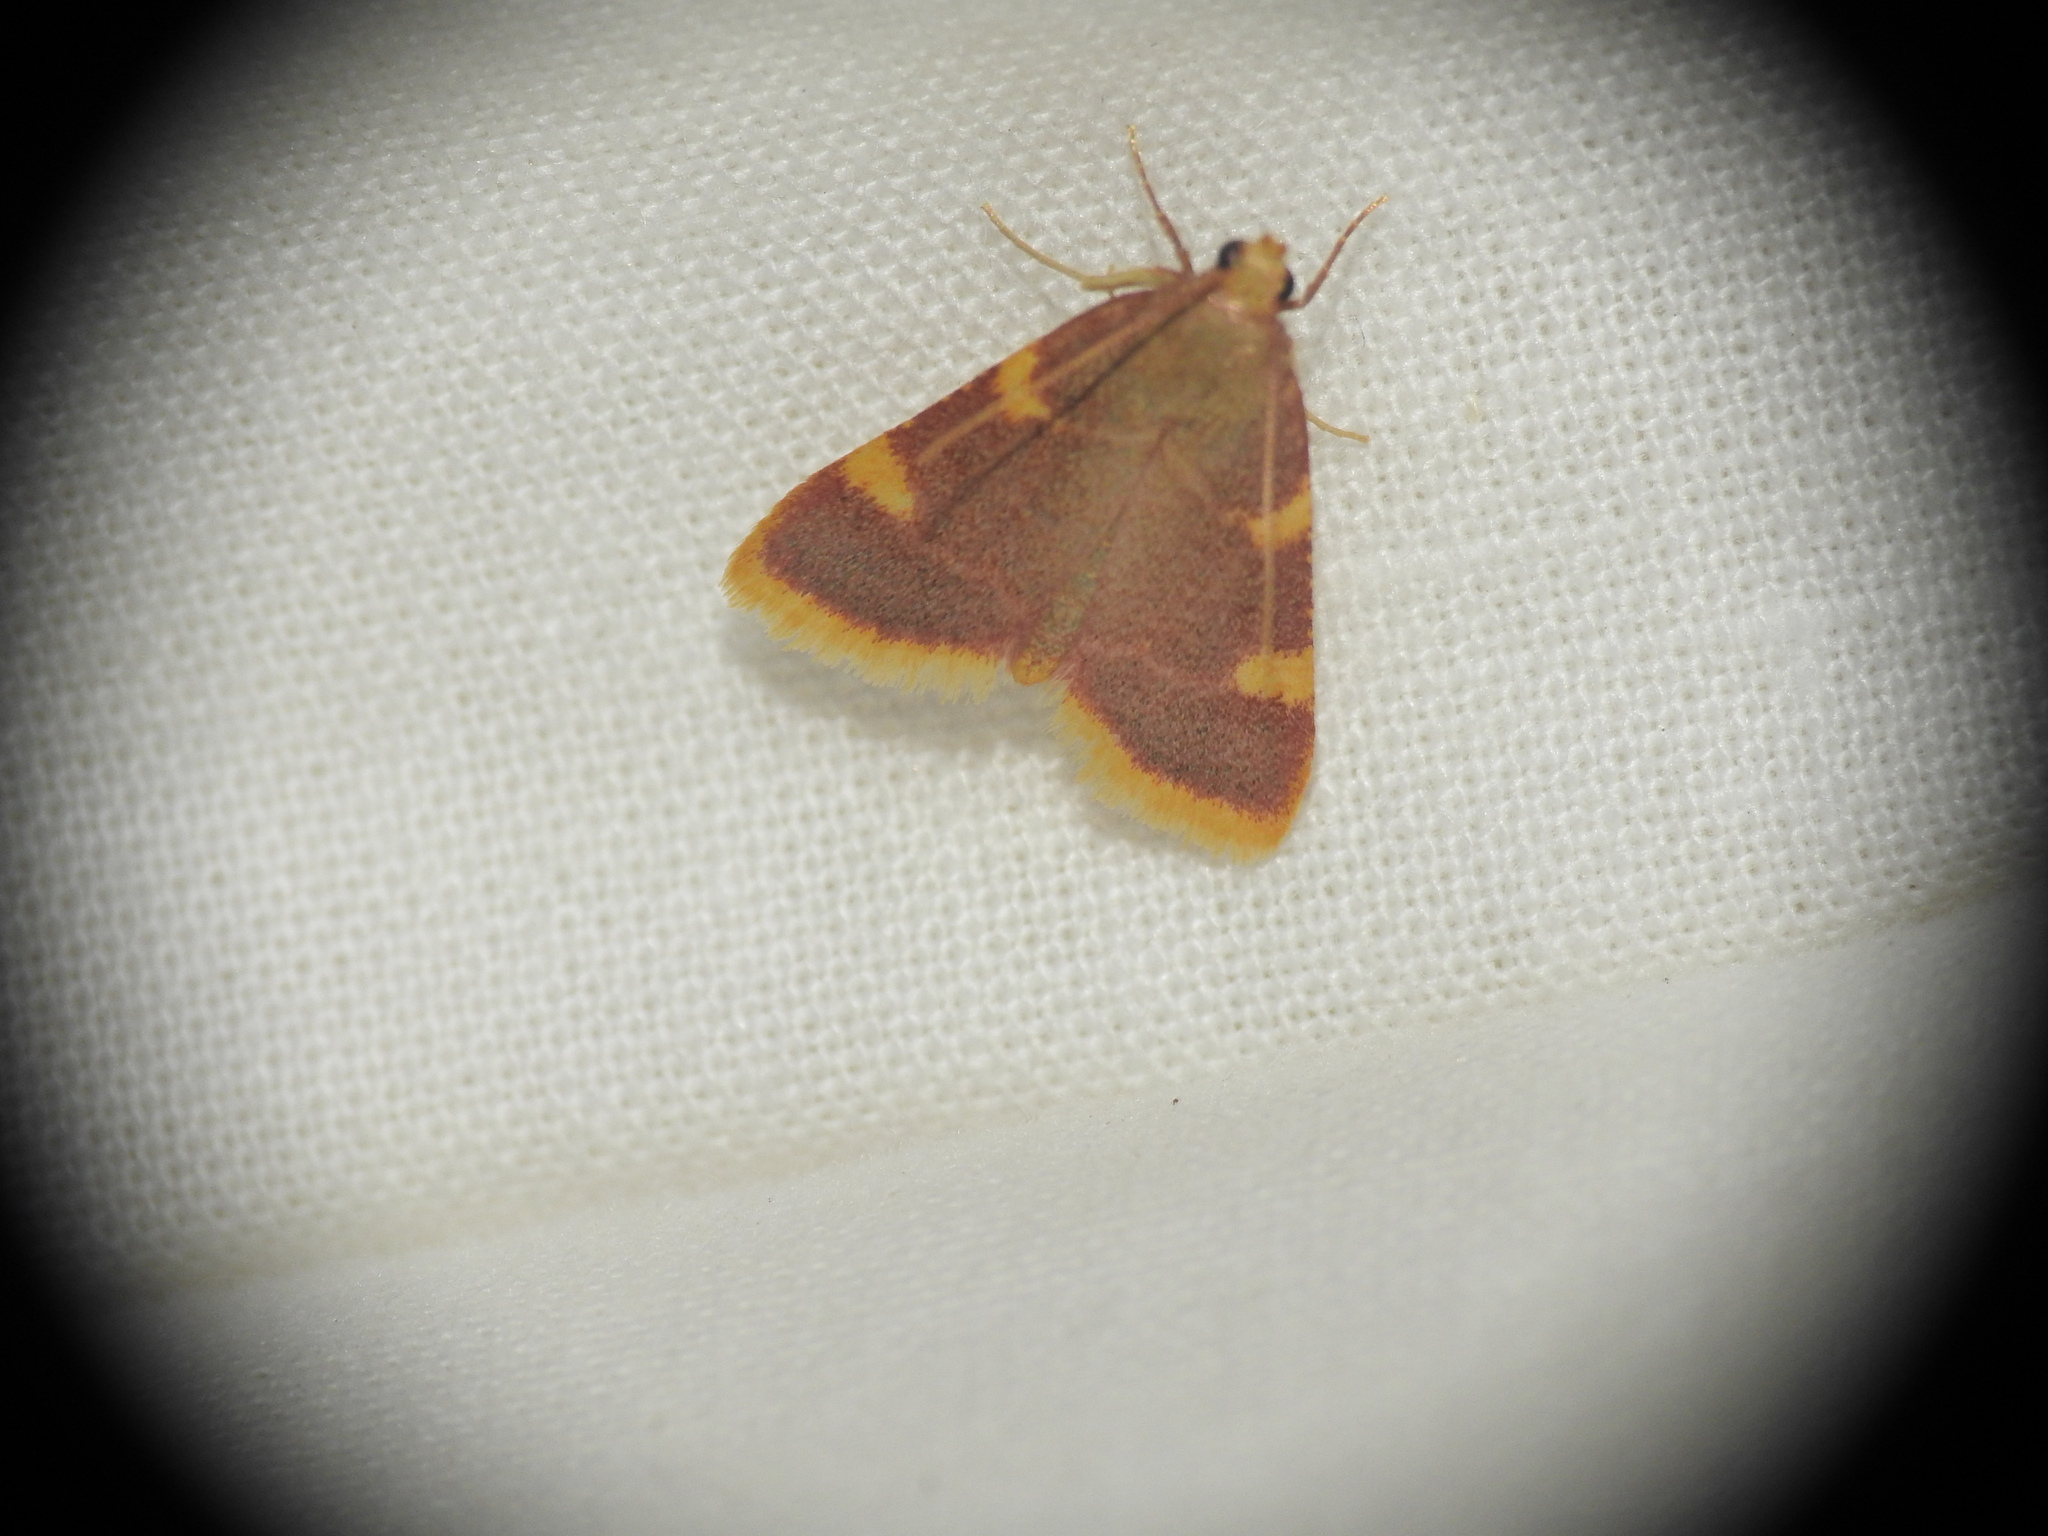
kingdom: Animalia
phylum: Arthropoda
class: Insecta
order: Lepidoptera
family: Pyralidae
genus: Hypsopygia
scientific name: Hypsopygia costalis
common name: Gold triangle
